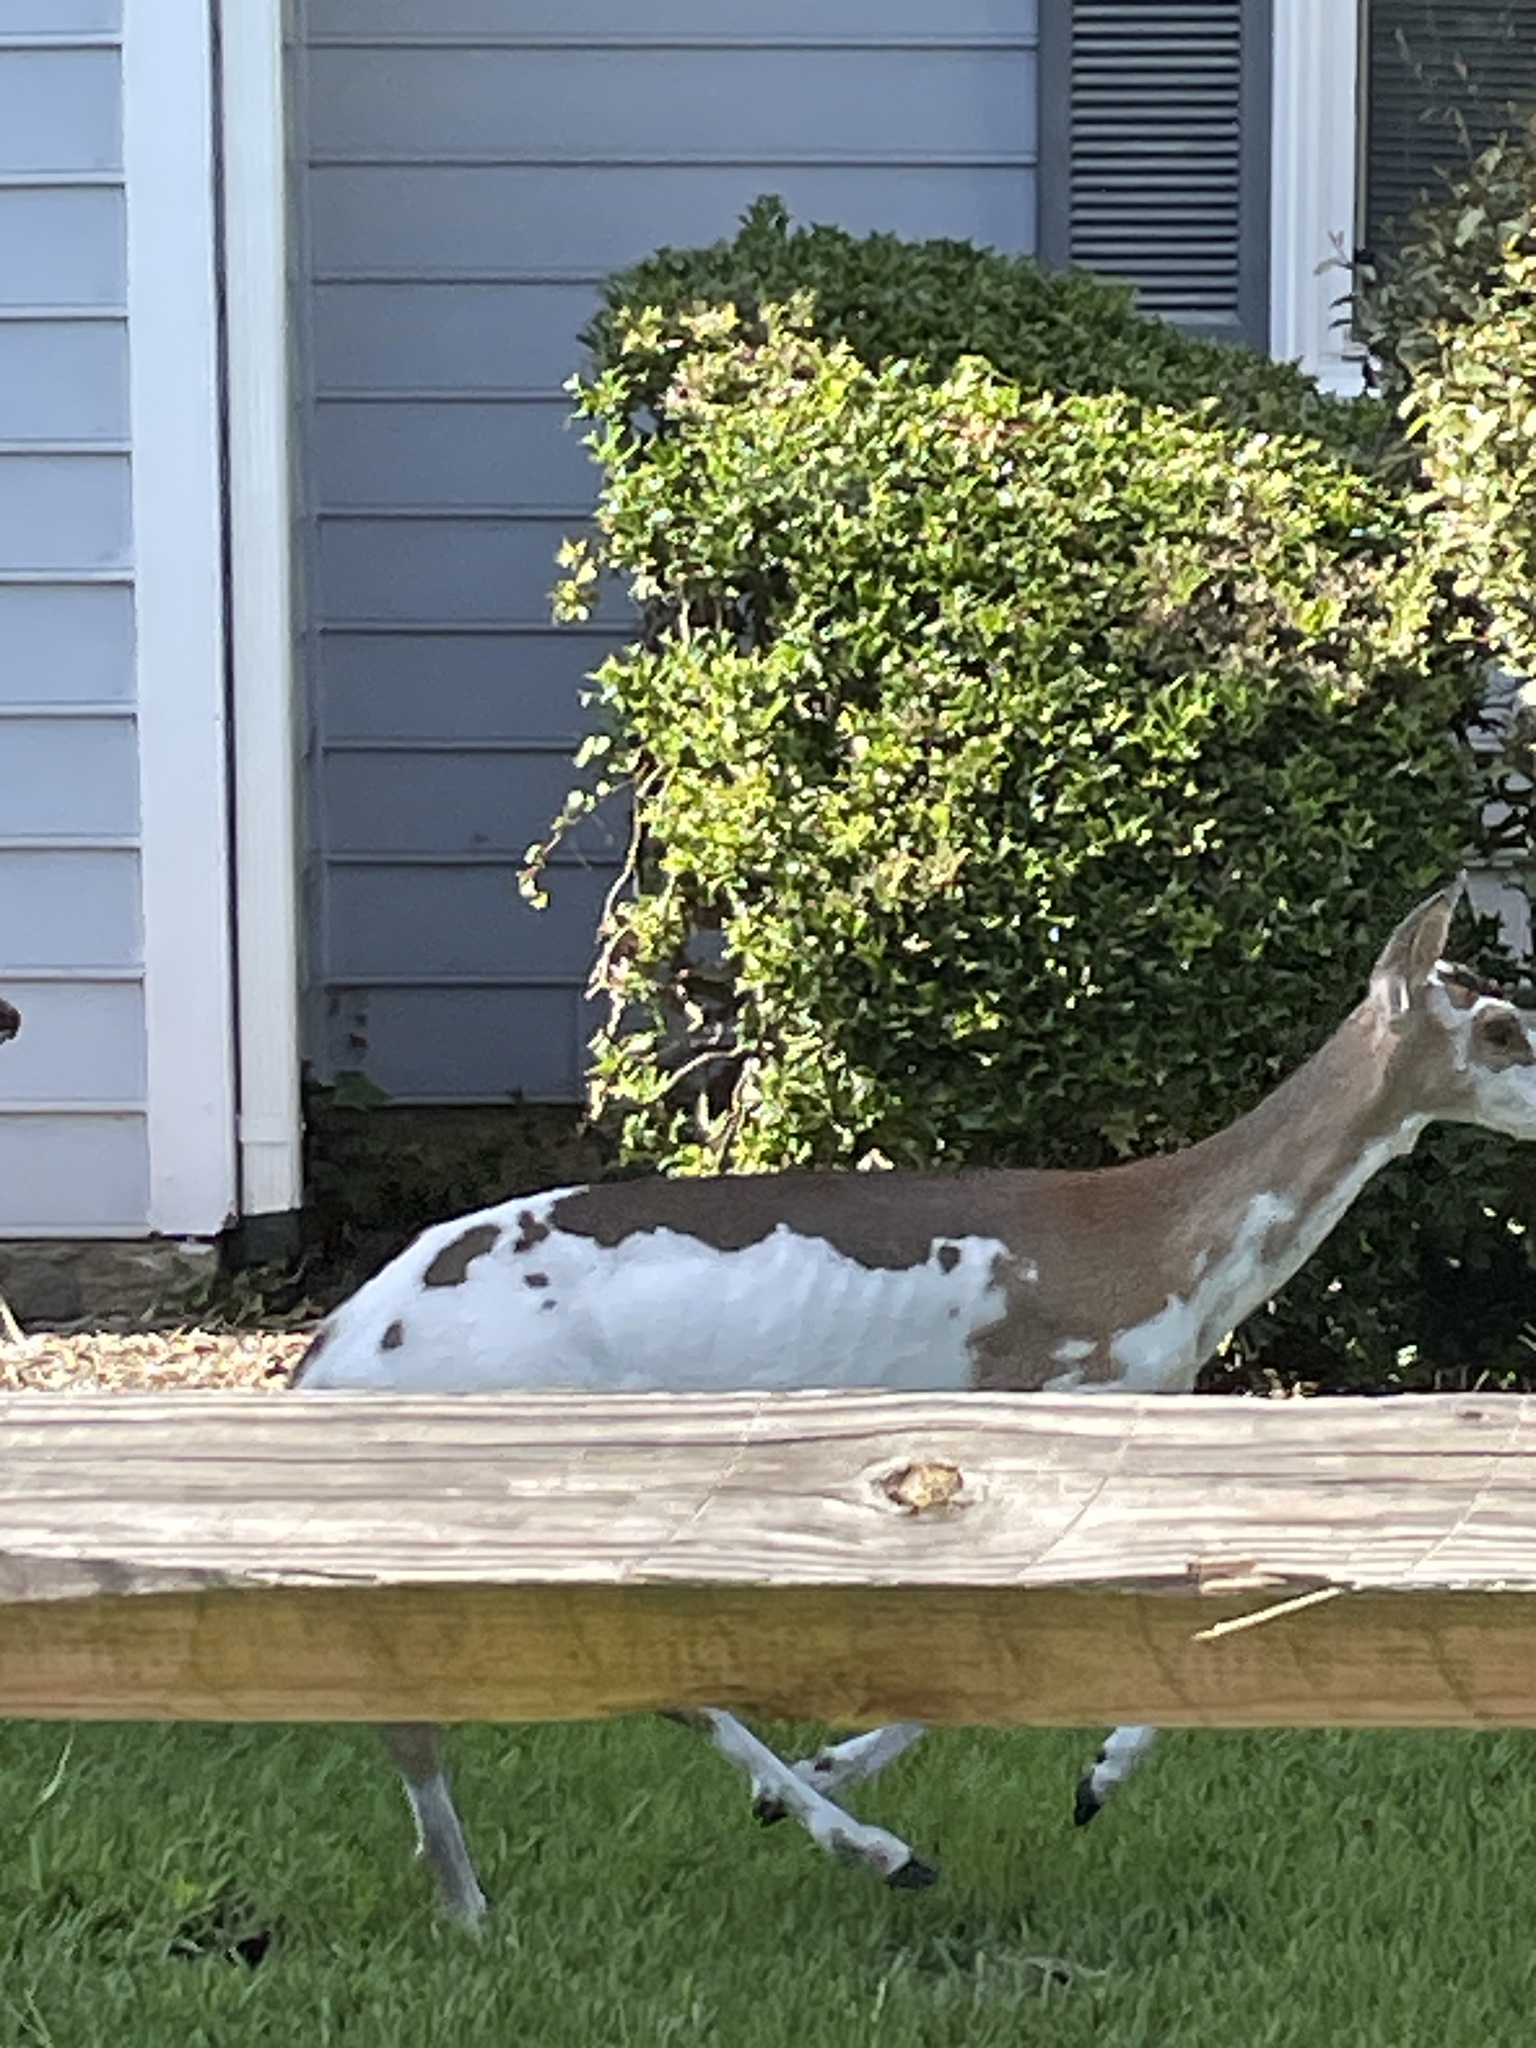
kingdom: Animalia
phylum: Chordata
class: Mammalia
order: Artiodactyla
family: Cervidae
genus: Odocoileus
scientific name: Odocoileus virginianus
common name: White-tailed deer
